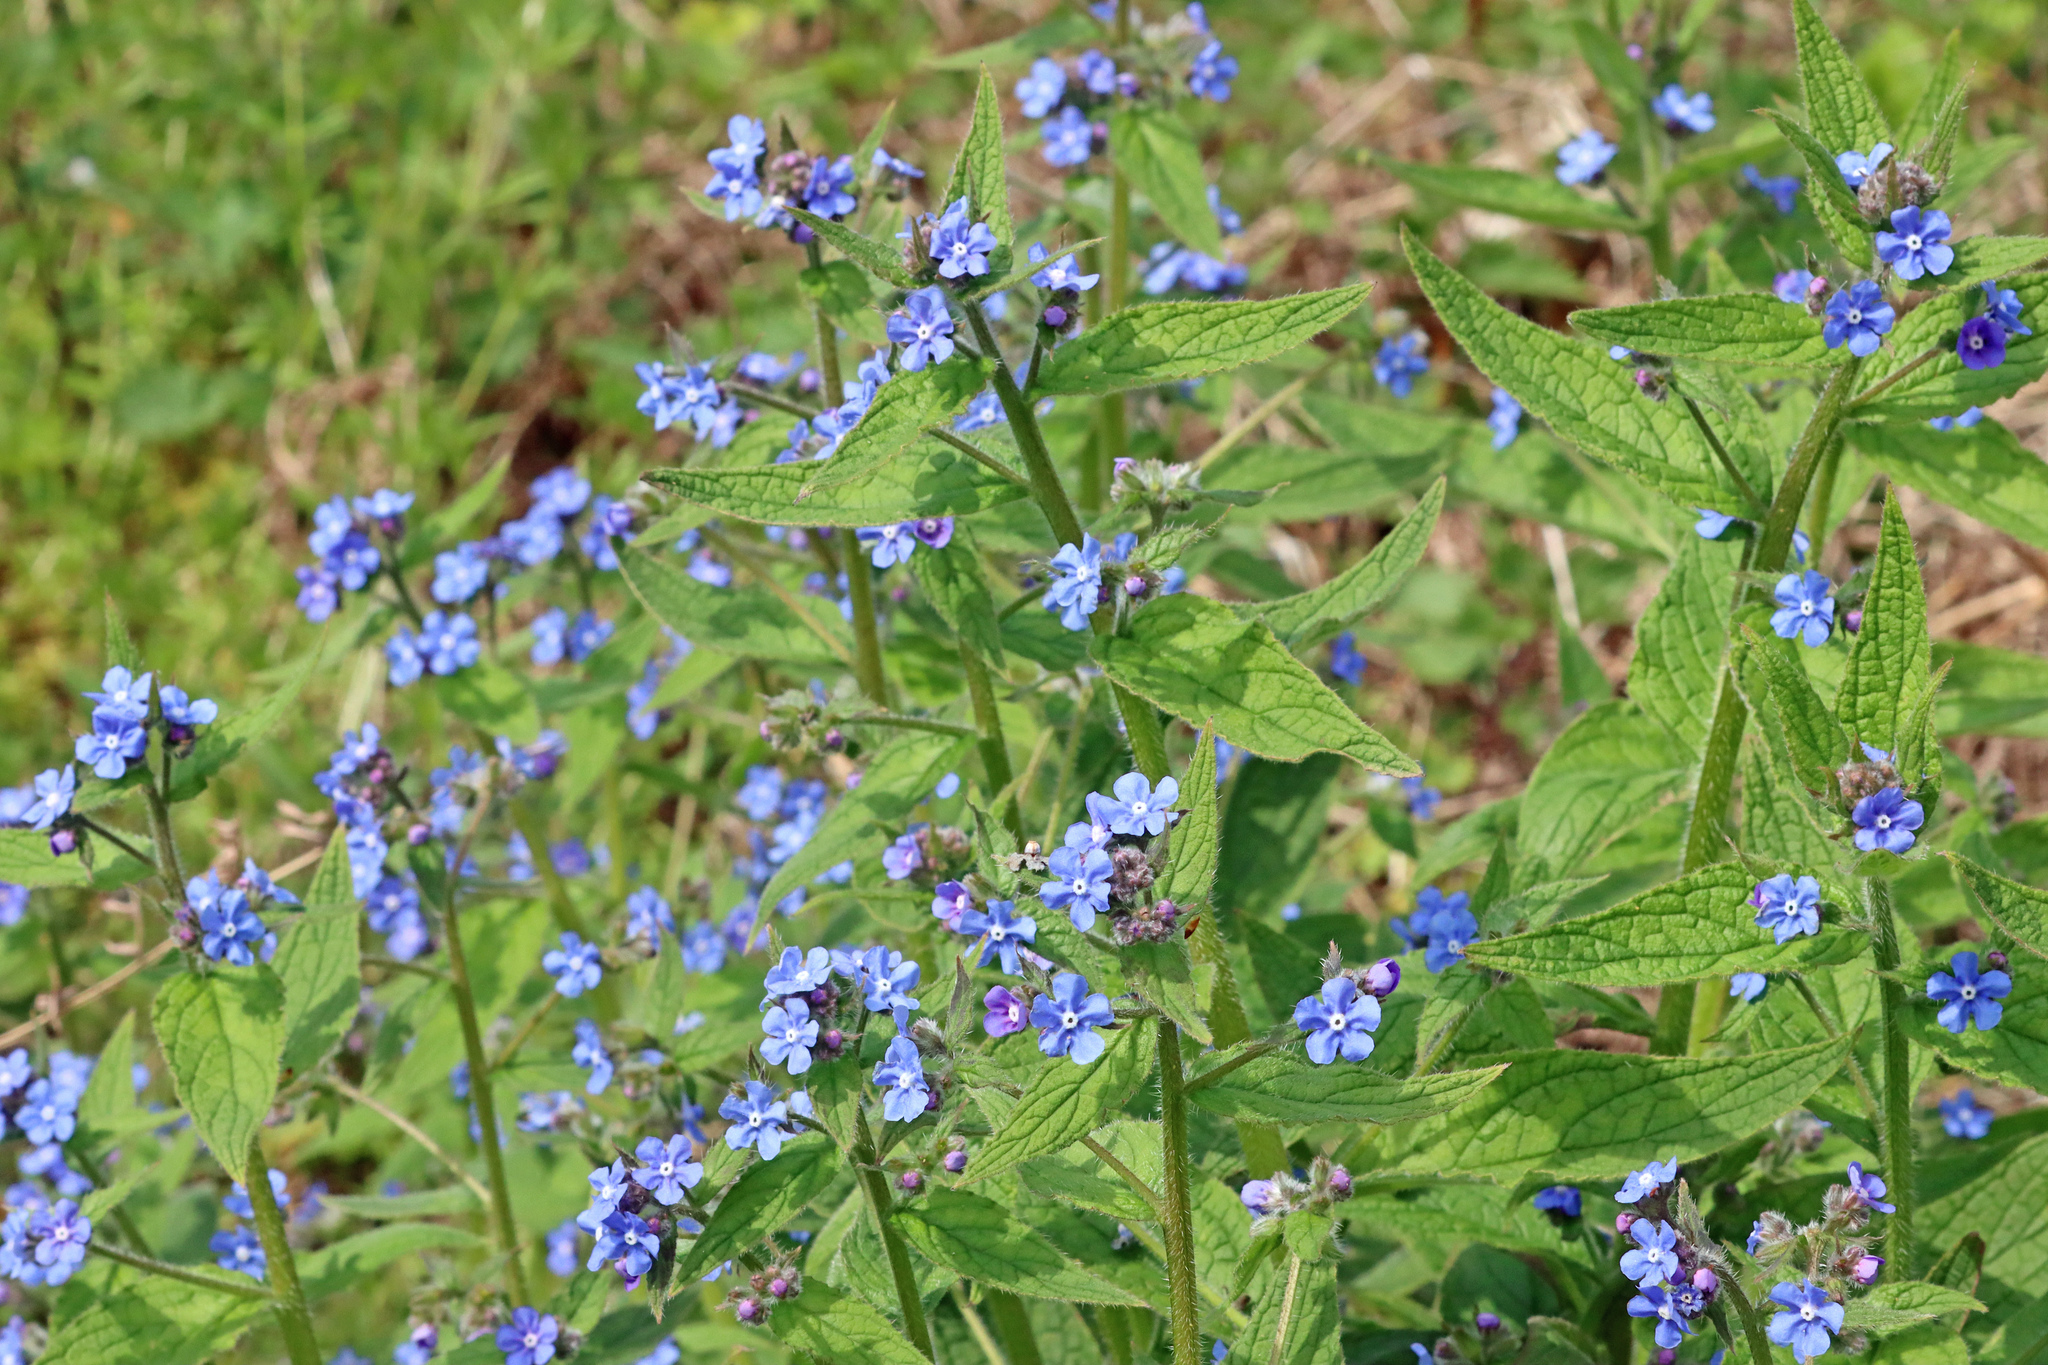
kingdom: Plantae
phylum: Tracheophyta
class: Magnoliopsida
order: Boraginales
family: Boraginaceae
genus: Pentaglottis
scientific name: Pentaglottis sempervirens
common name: Green alkanet
